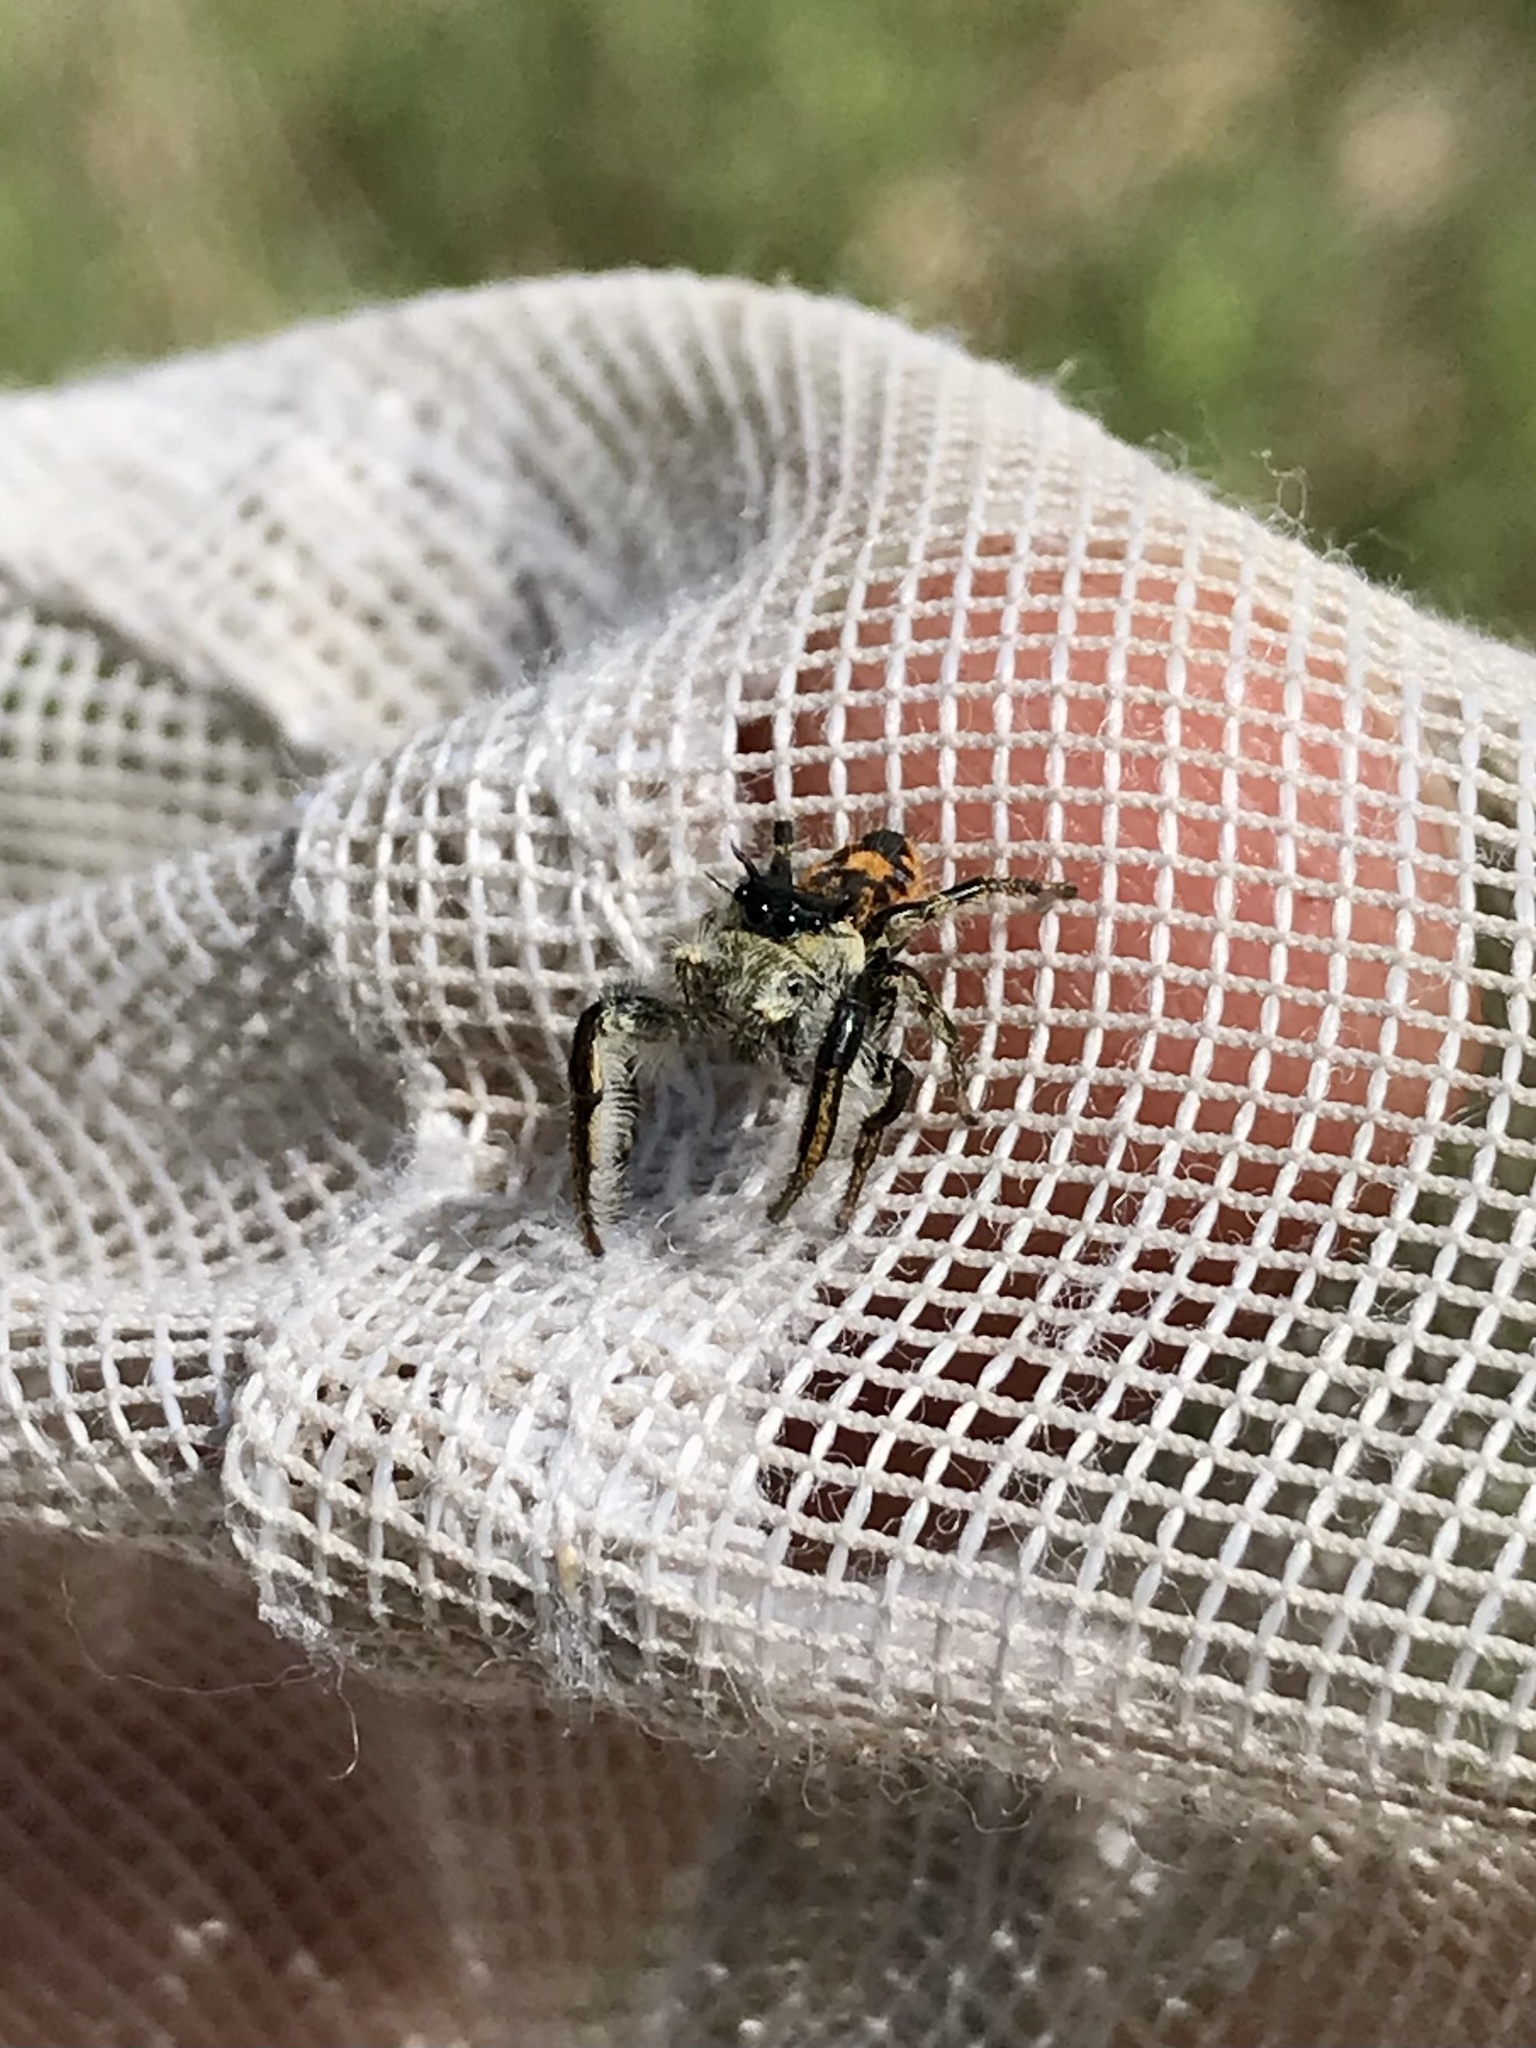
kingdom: Animalia
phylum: Arthropoda
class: Arachnida
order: Araneae
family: Salticidae
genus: Phidippus
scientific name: Phidippus insignarius
